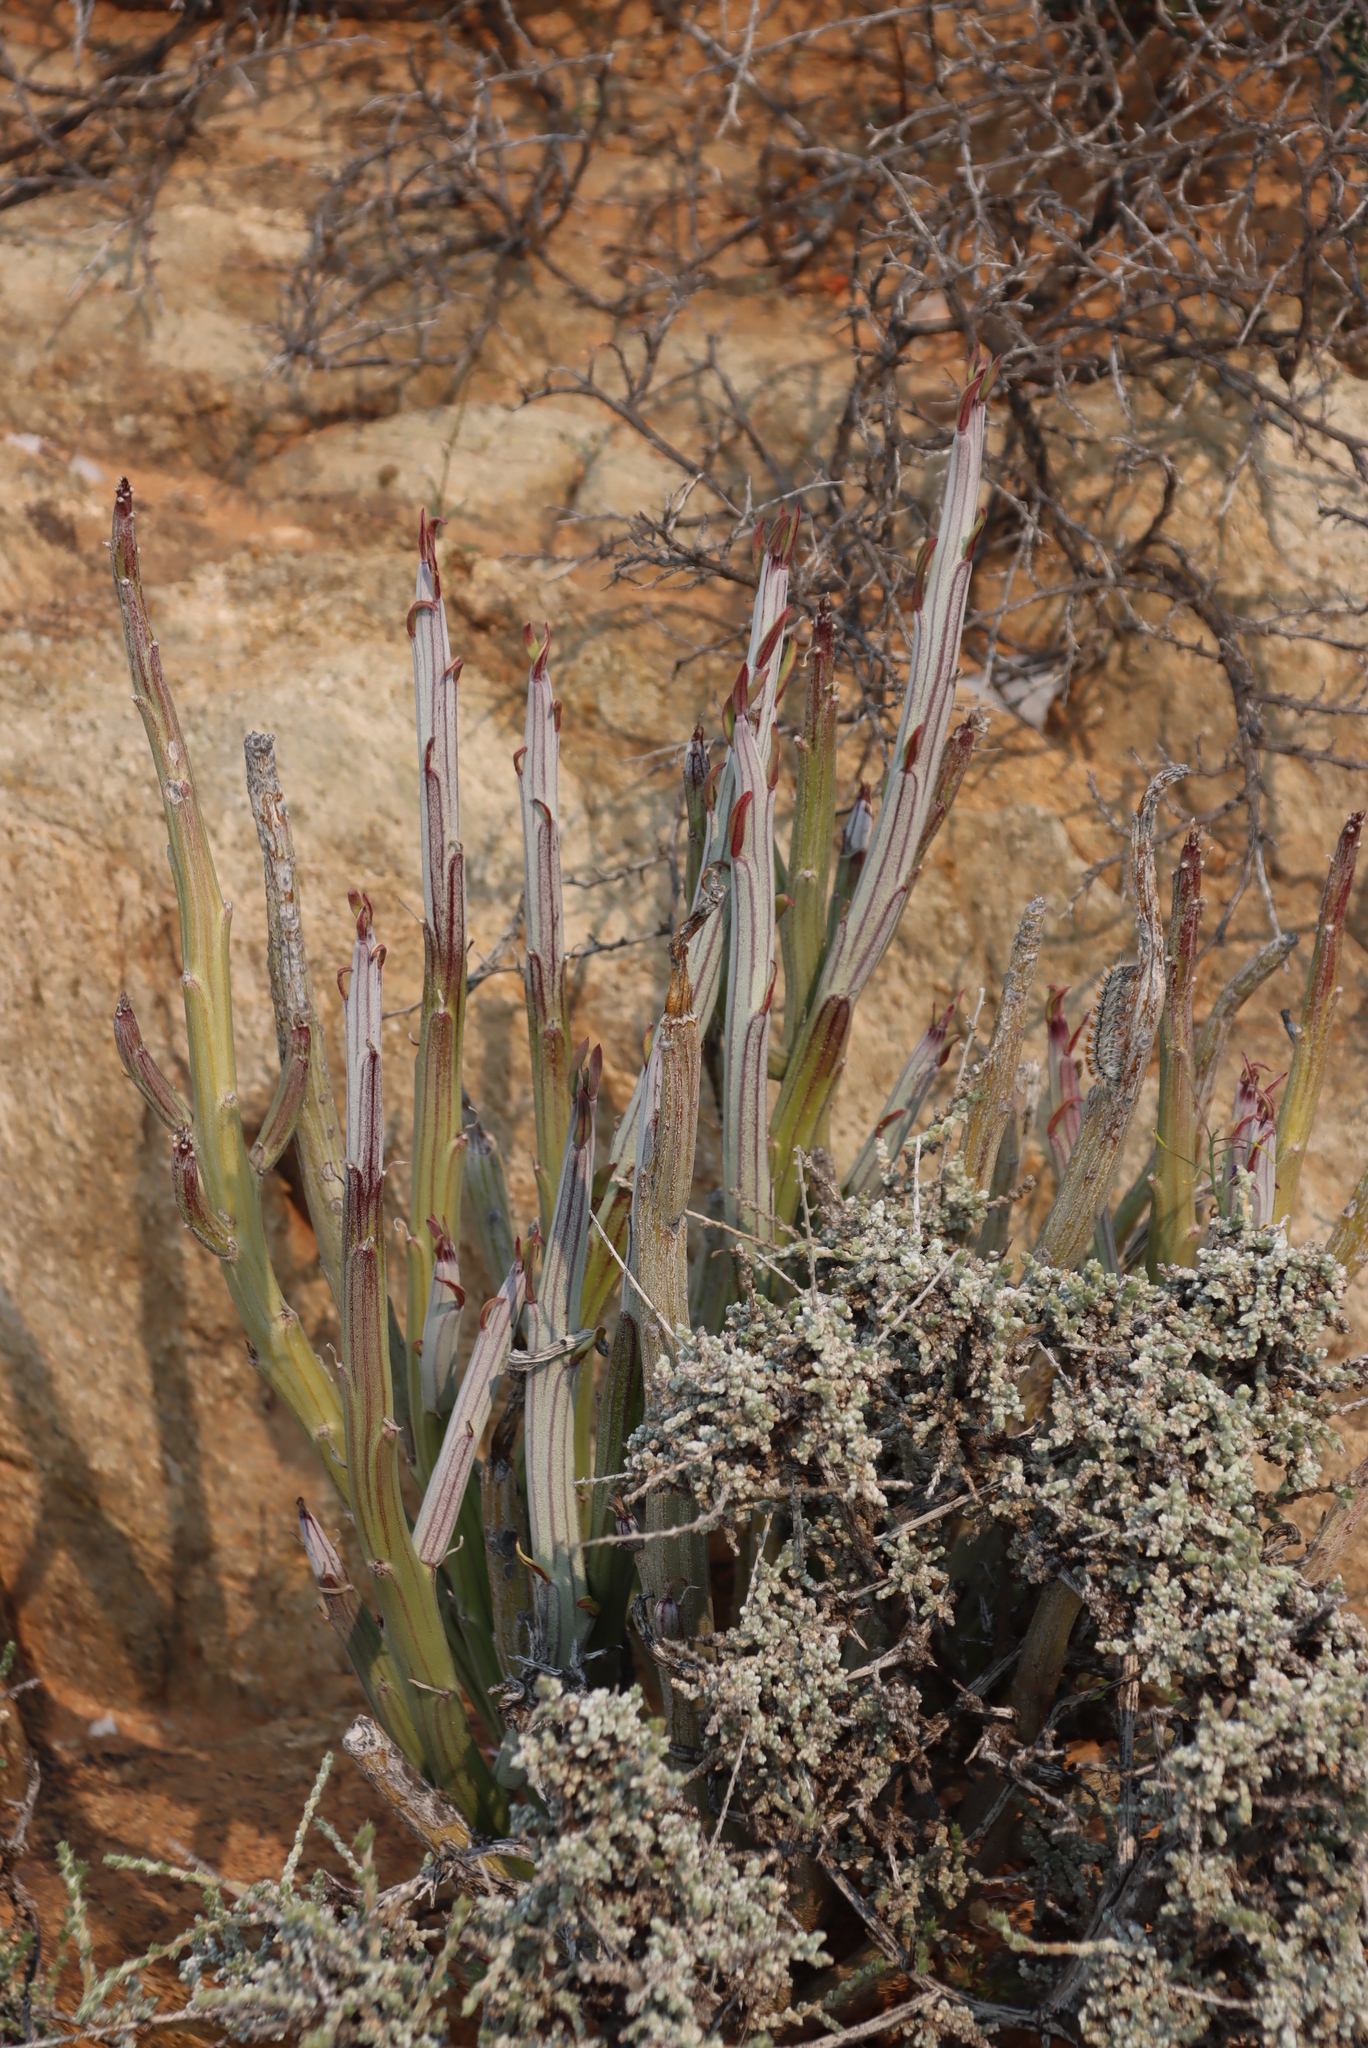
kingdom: Plantae
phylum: Tracheophyta
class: Magnoliopsida
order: Asterales
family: Asteraceae
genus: Curio
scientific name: Curio avasimontanus
